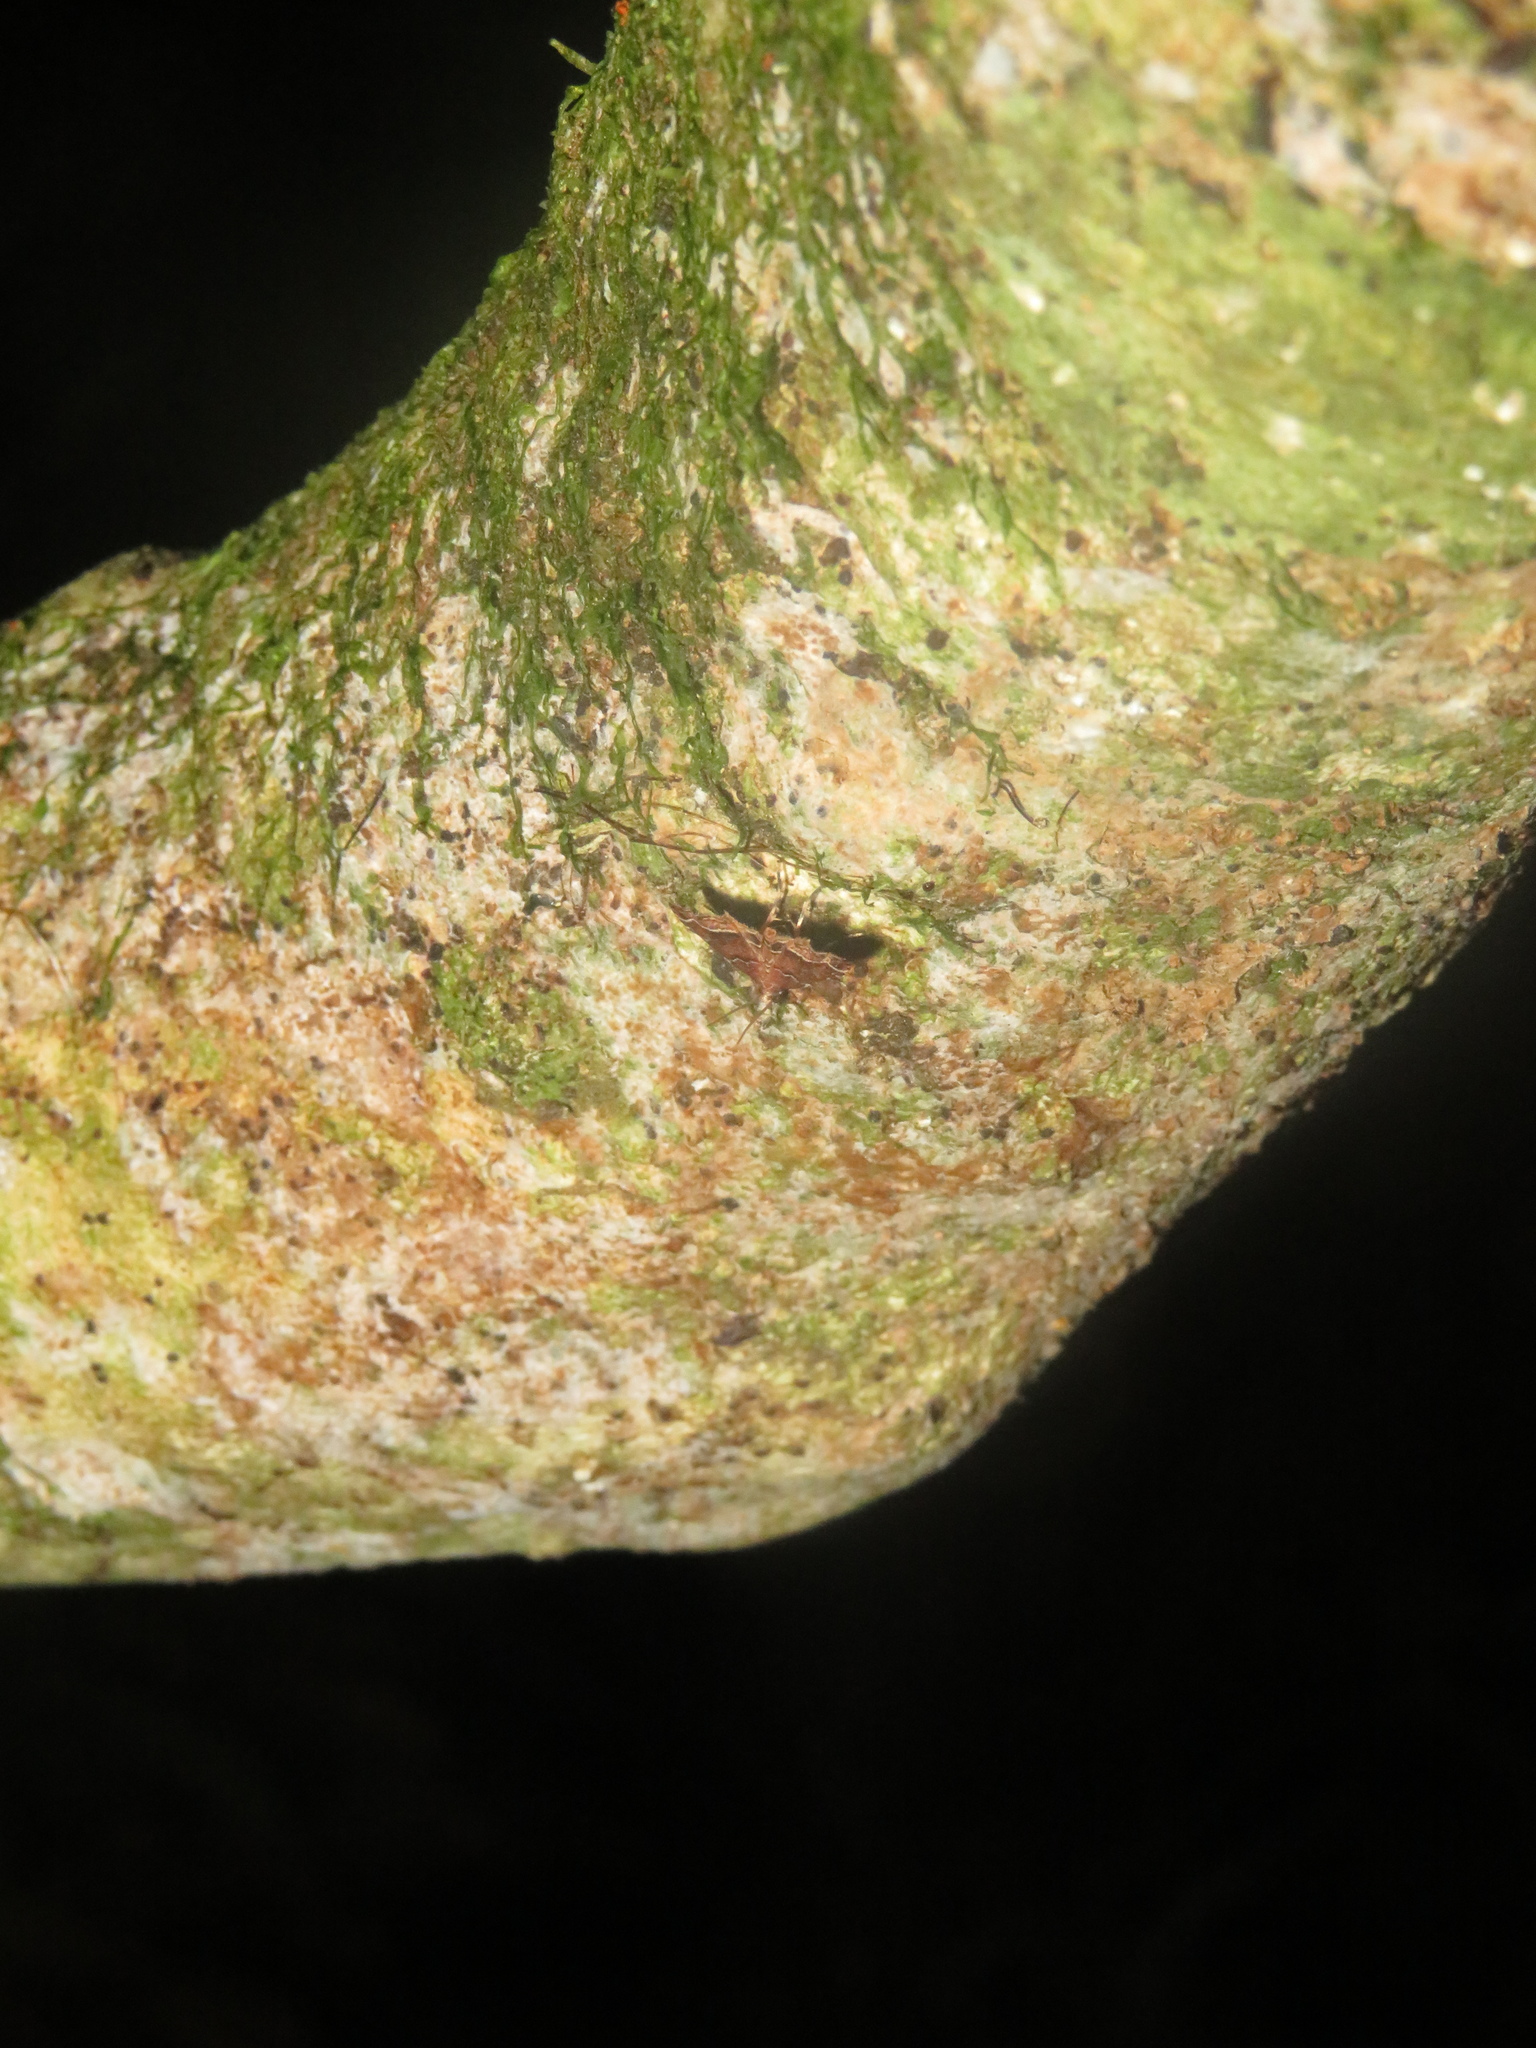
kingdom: Animalia
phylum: Arthropoda
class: Insecta
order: Lepidoptera
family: Crambidae
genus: Diplopseustis
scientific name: Diplopseustis perieresalis
